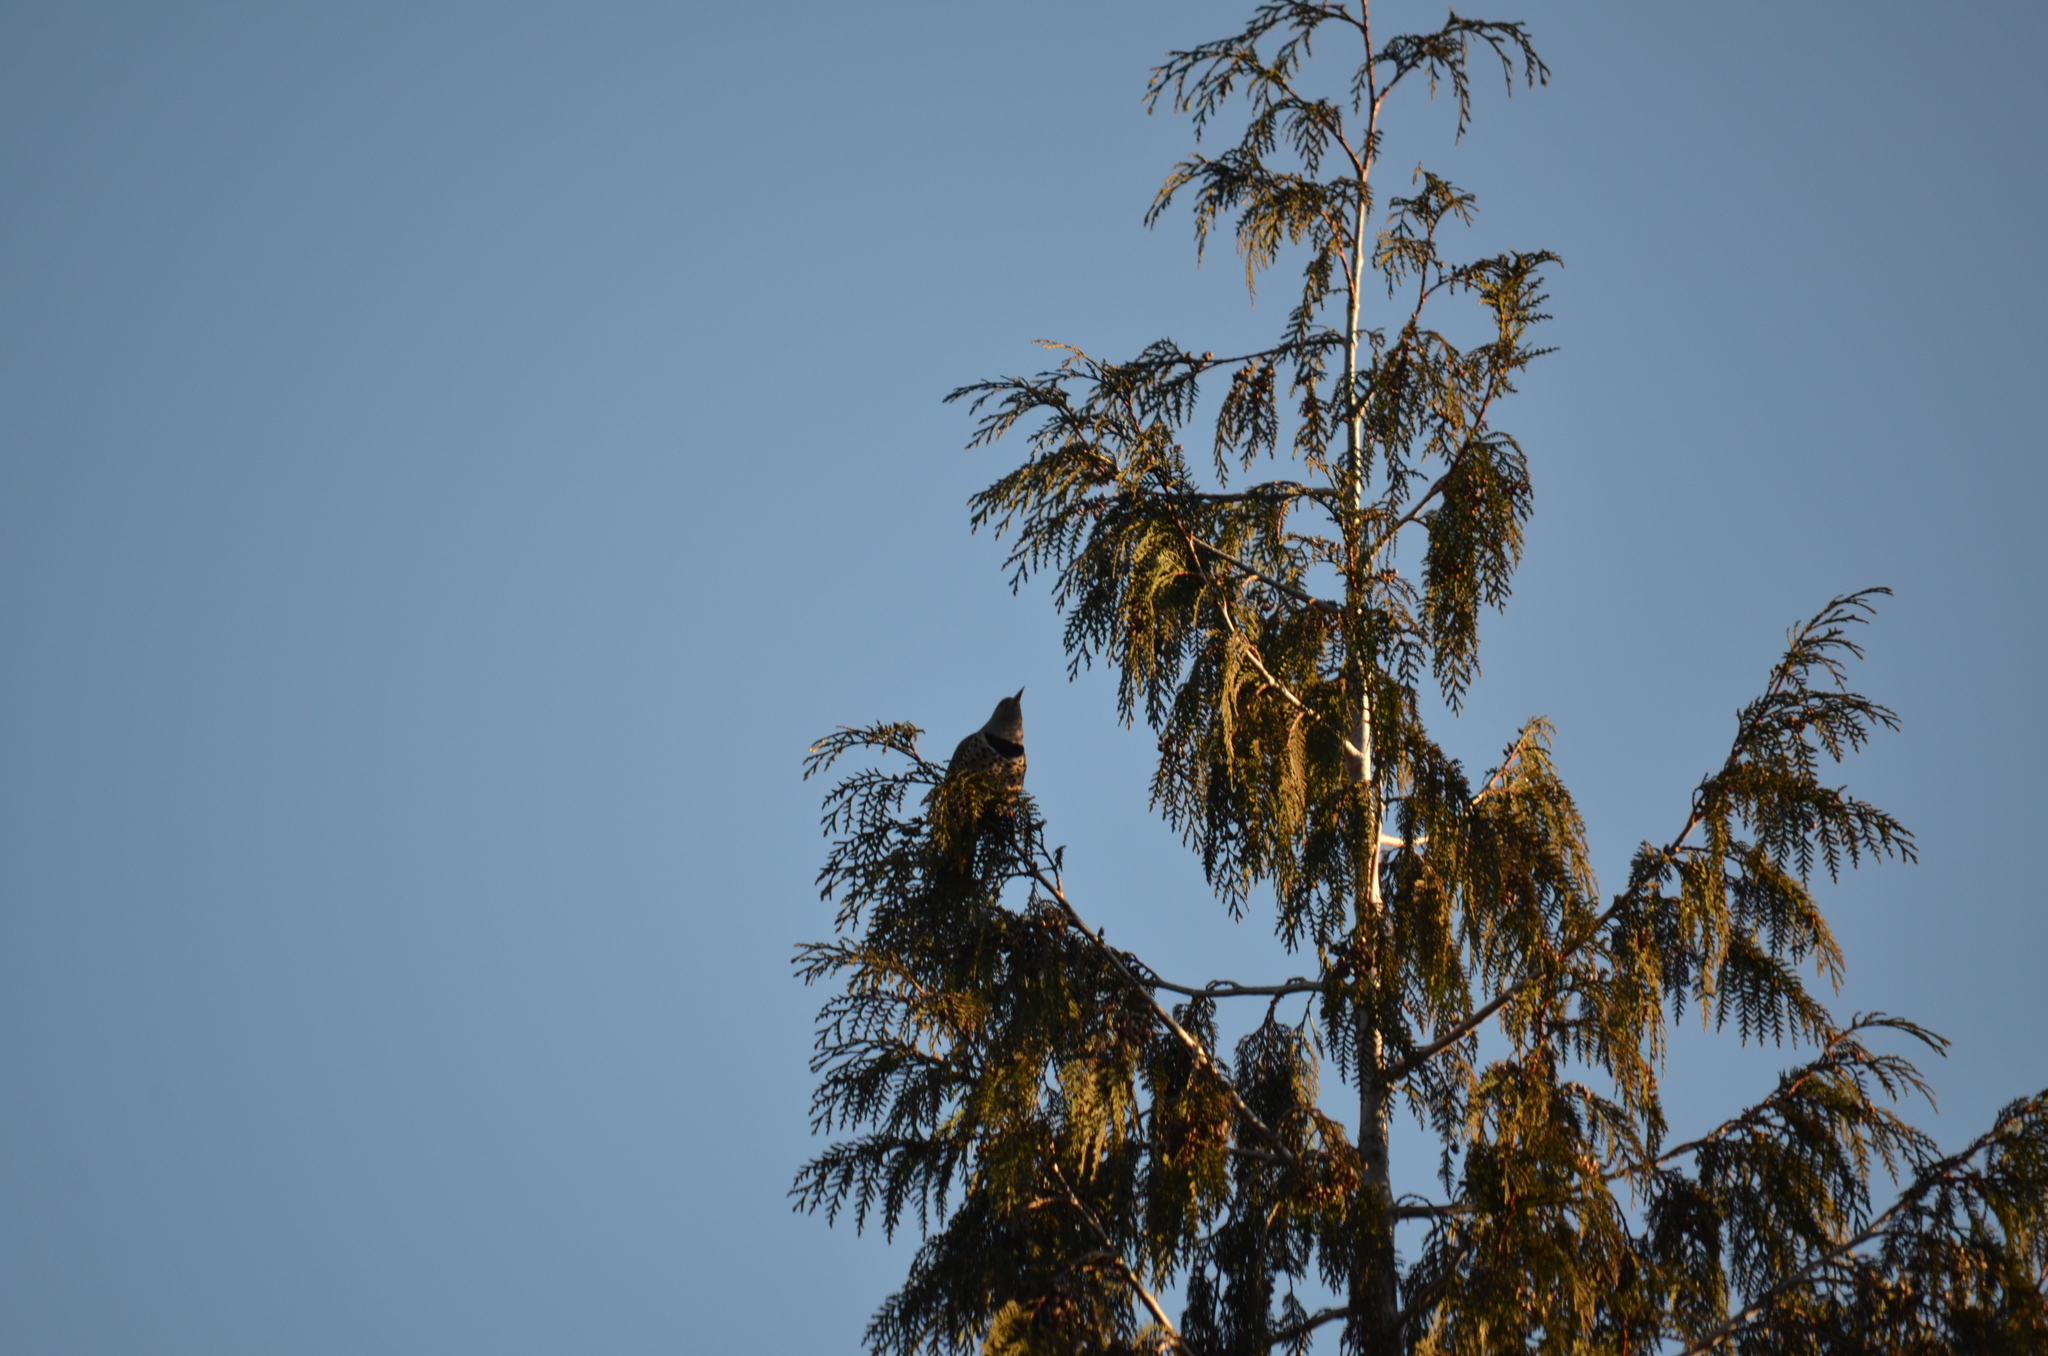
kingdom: Animalia
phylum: Chordata
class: Aves
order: Piciformes
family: Picidae
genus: Colaptes
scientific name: Colaptes auratus
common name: Northern flicker
